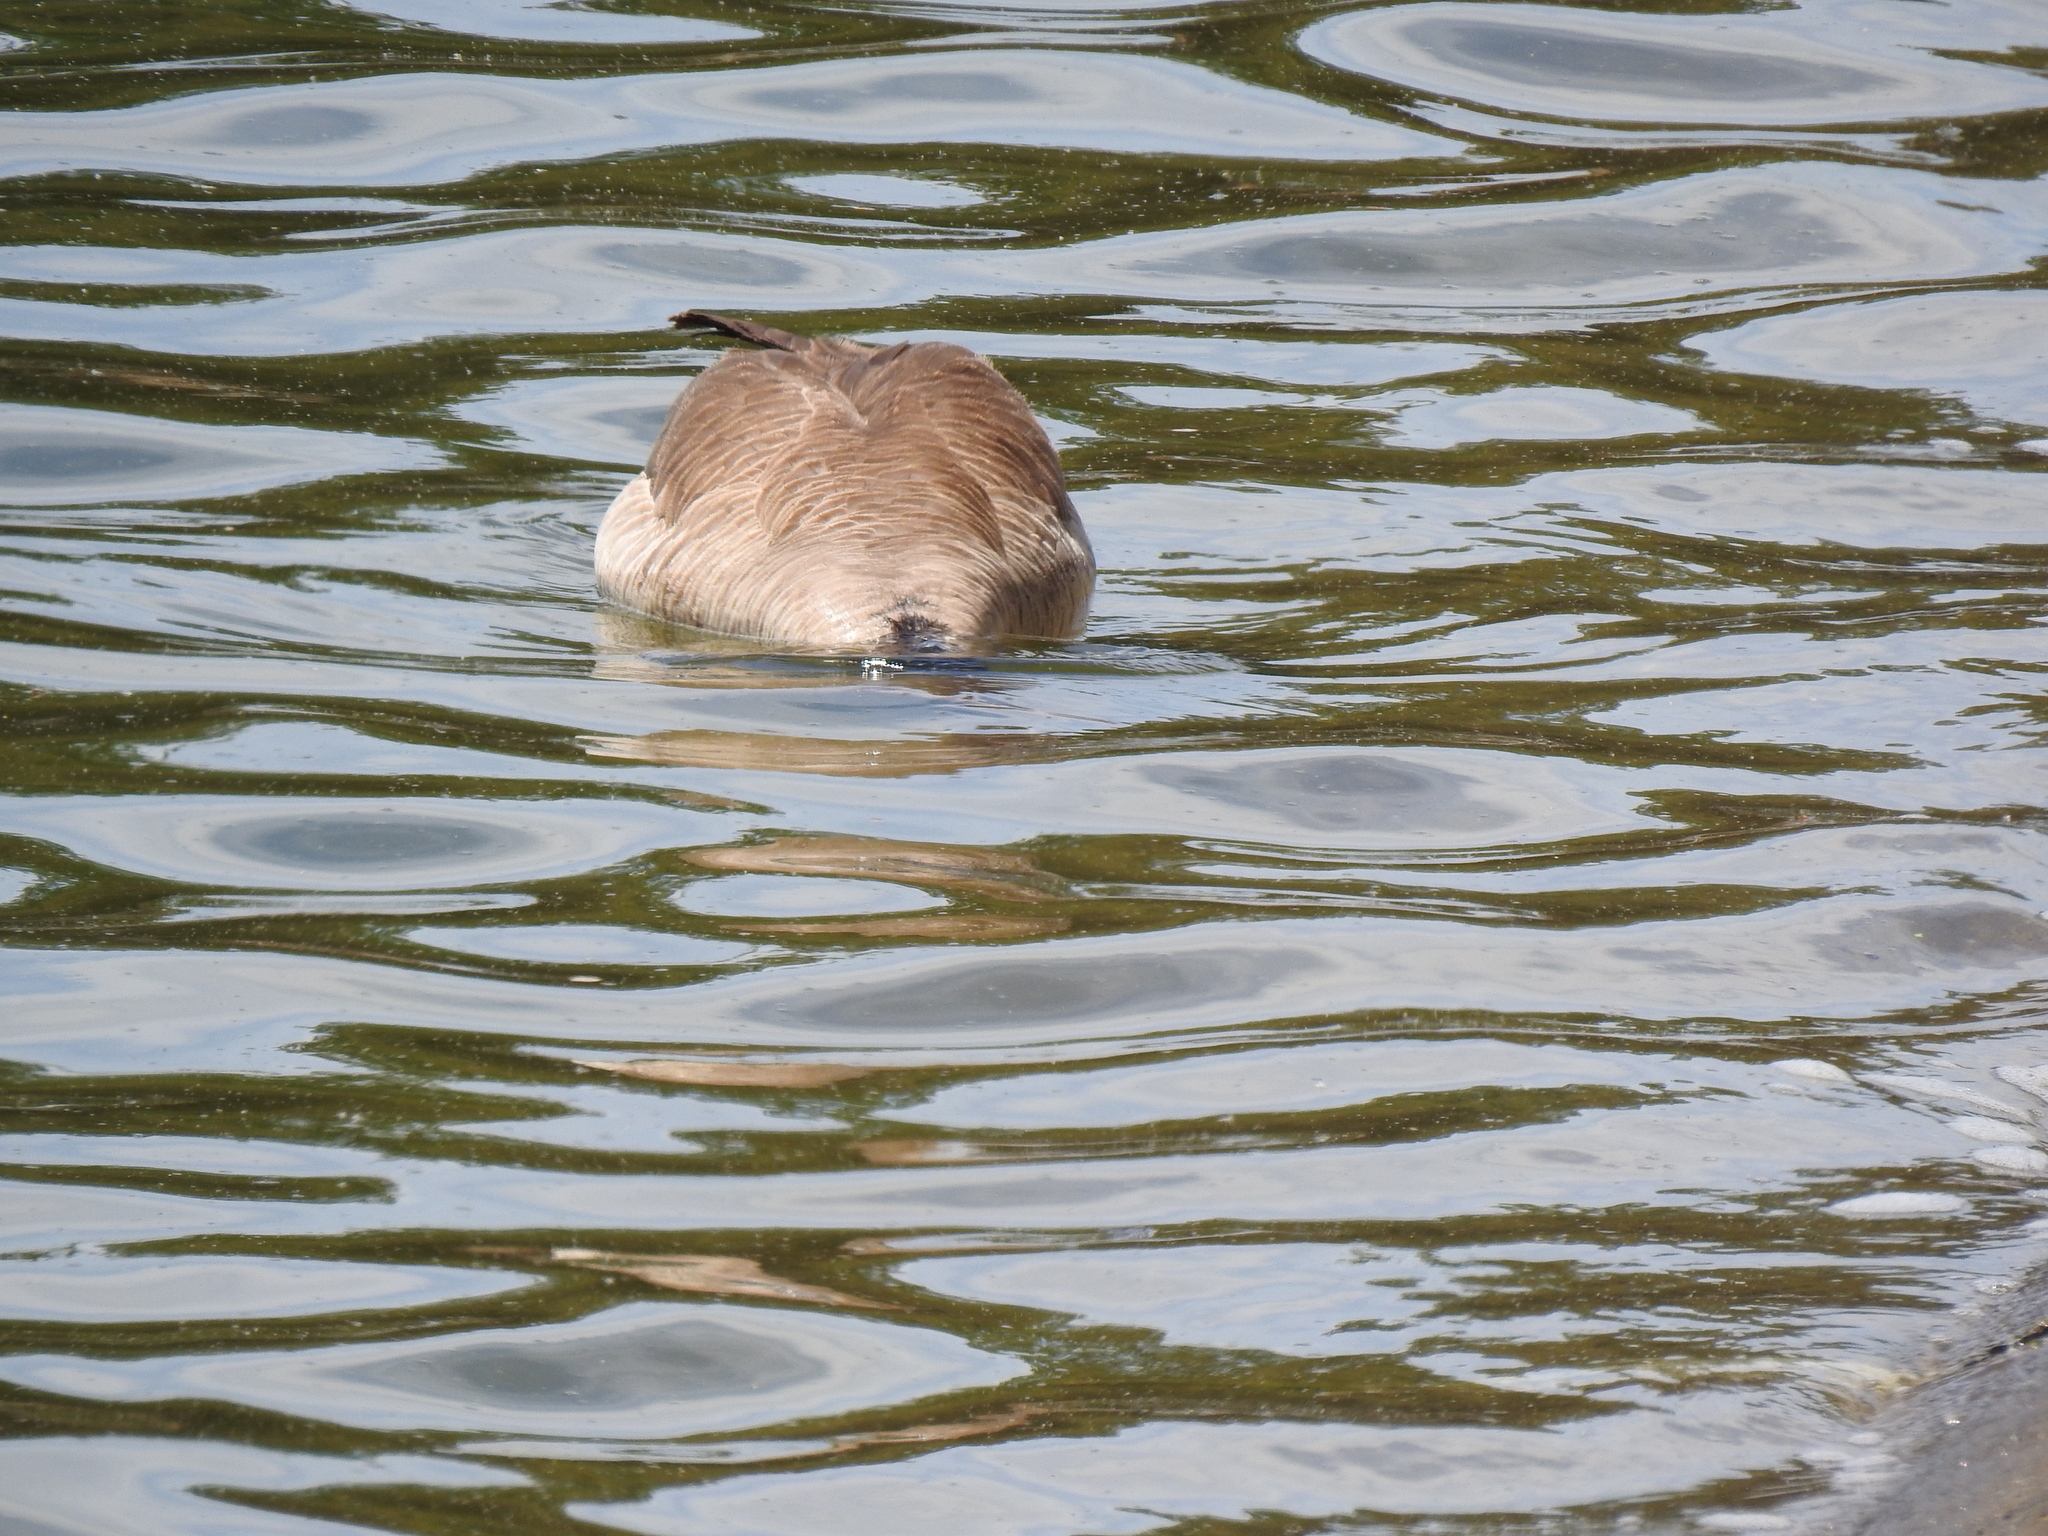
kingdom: Animalia
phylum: Chordata
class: Aves
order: Anseriformes
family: Anatidae
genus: Branta
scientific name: Branta canadensis
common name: Canada goose
